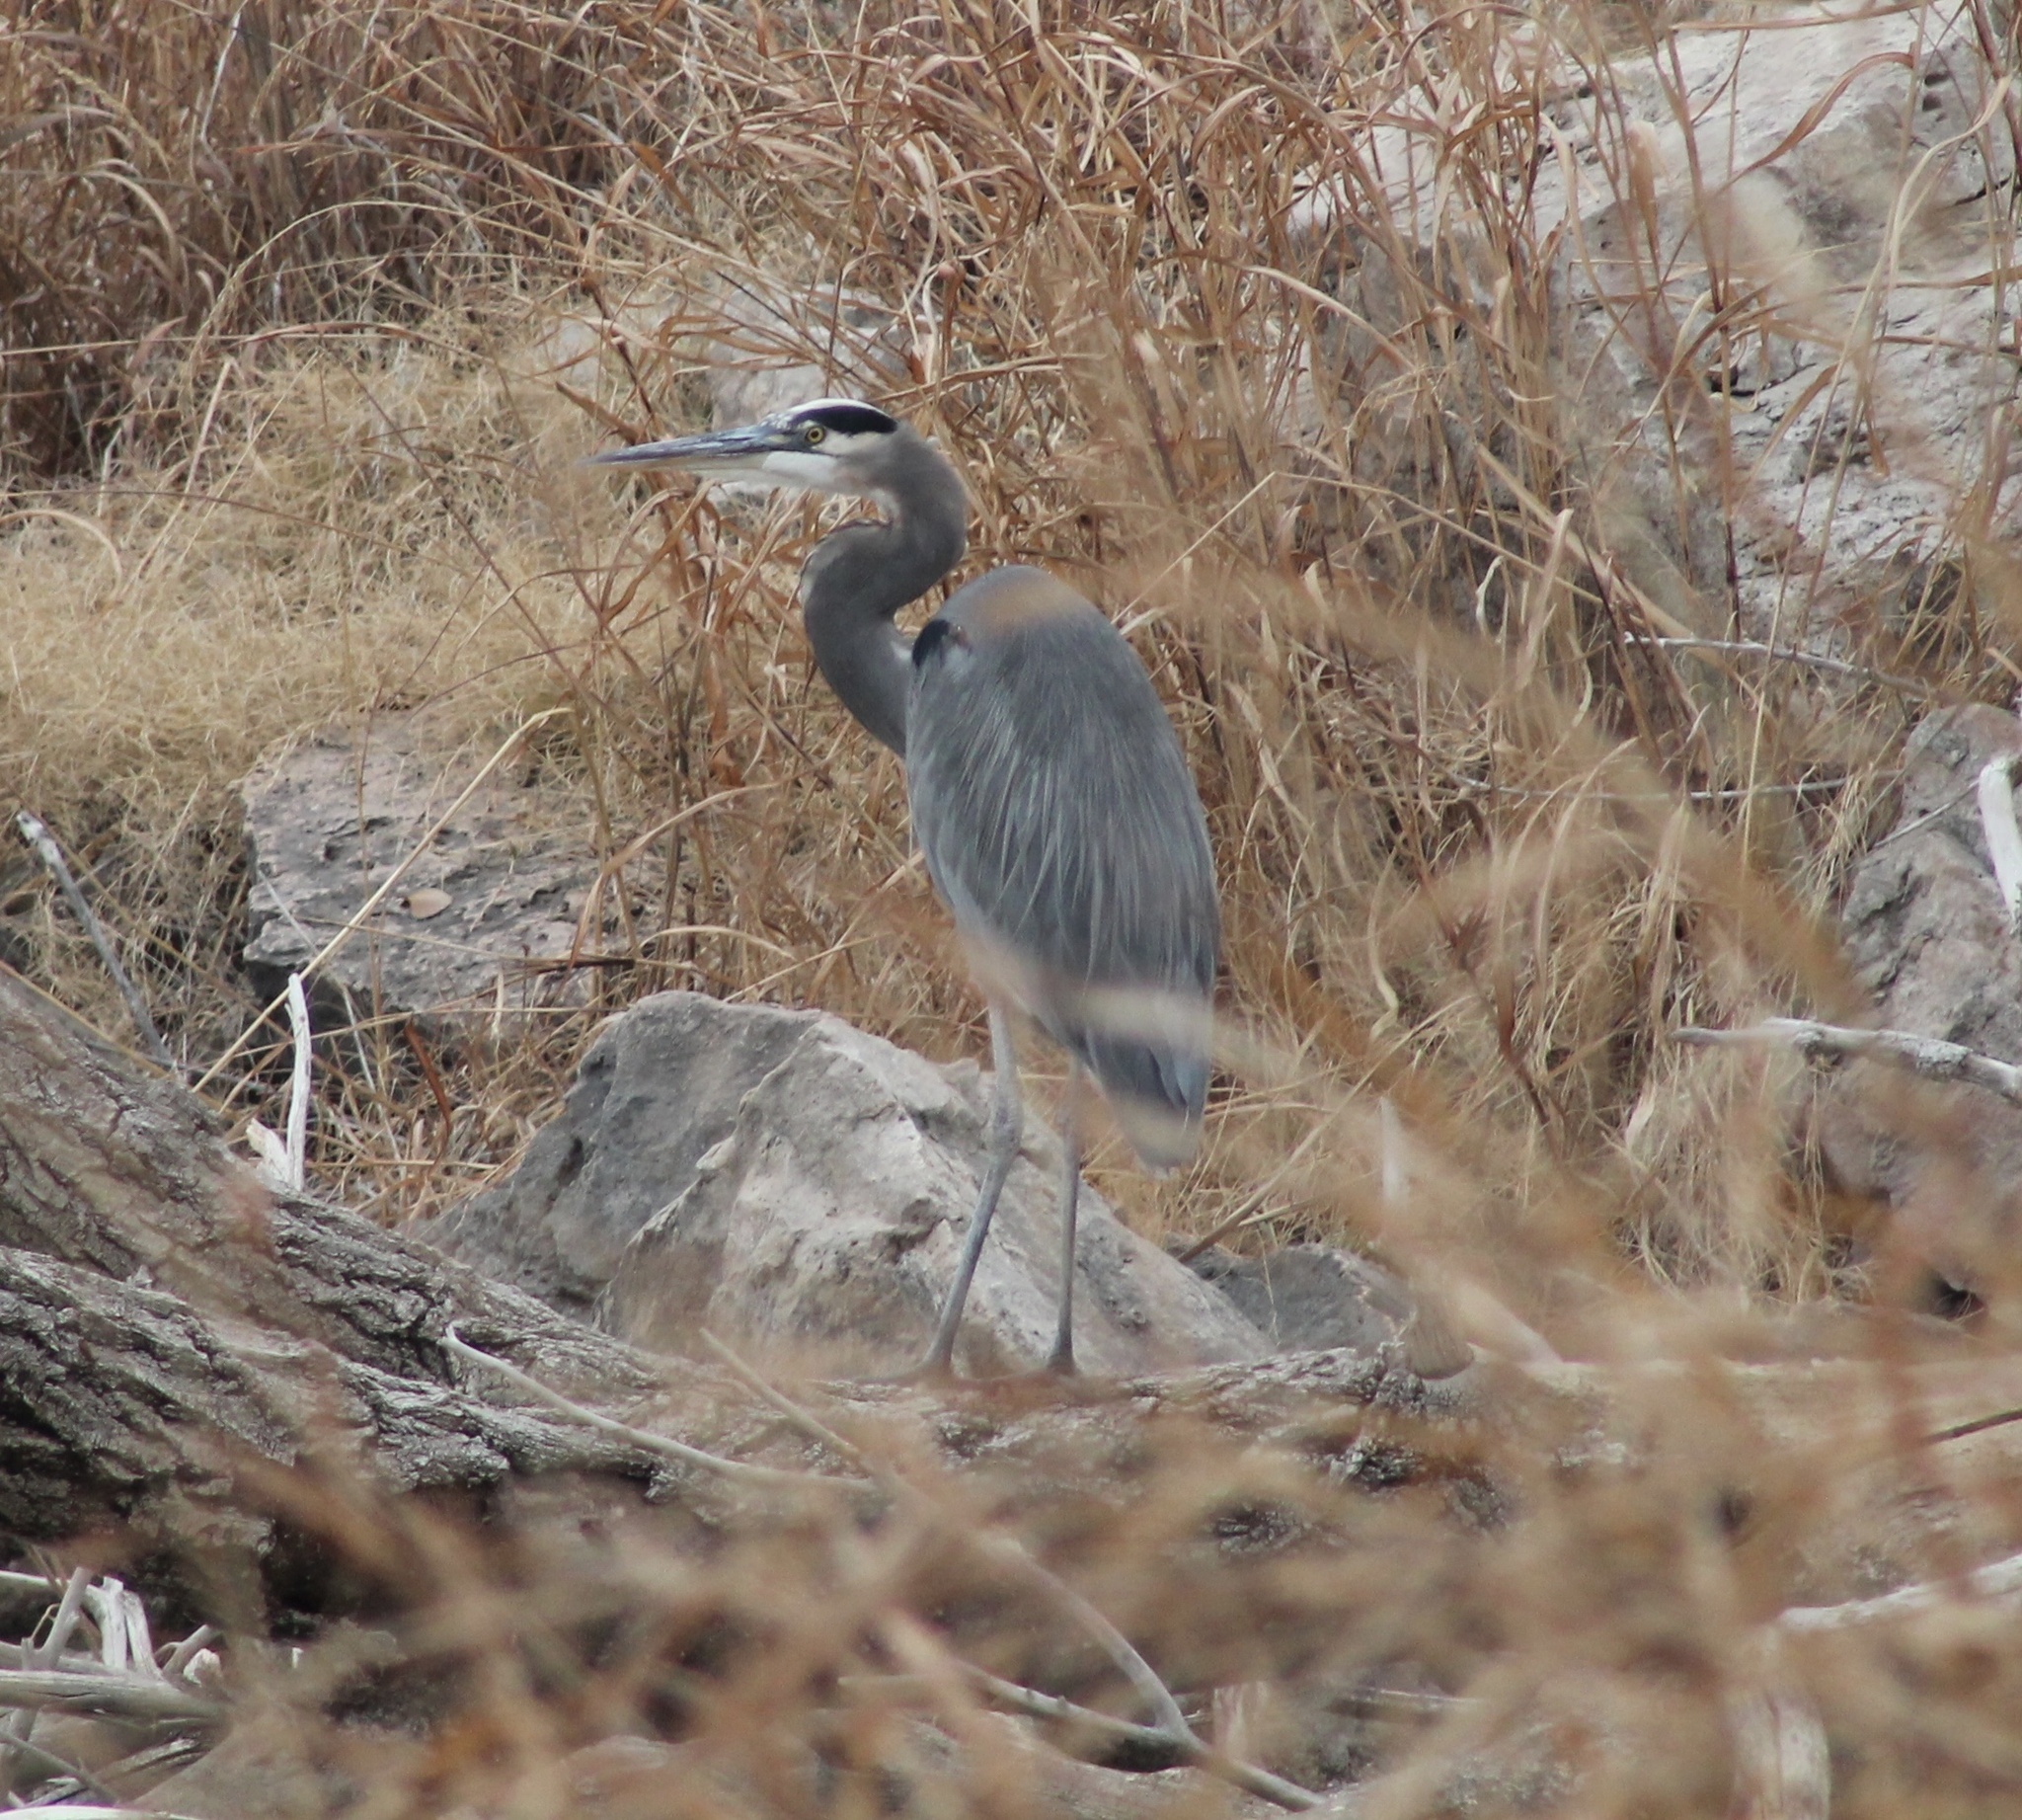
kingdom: Animalia
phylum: Chordata
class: Aves
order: Pelecaniformes
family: Ardeidae
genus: Ardea
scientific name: Ardea herodias
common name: Great blue heron
